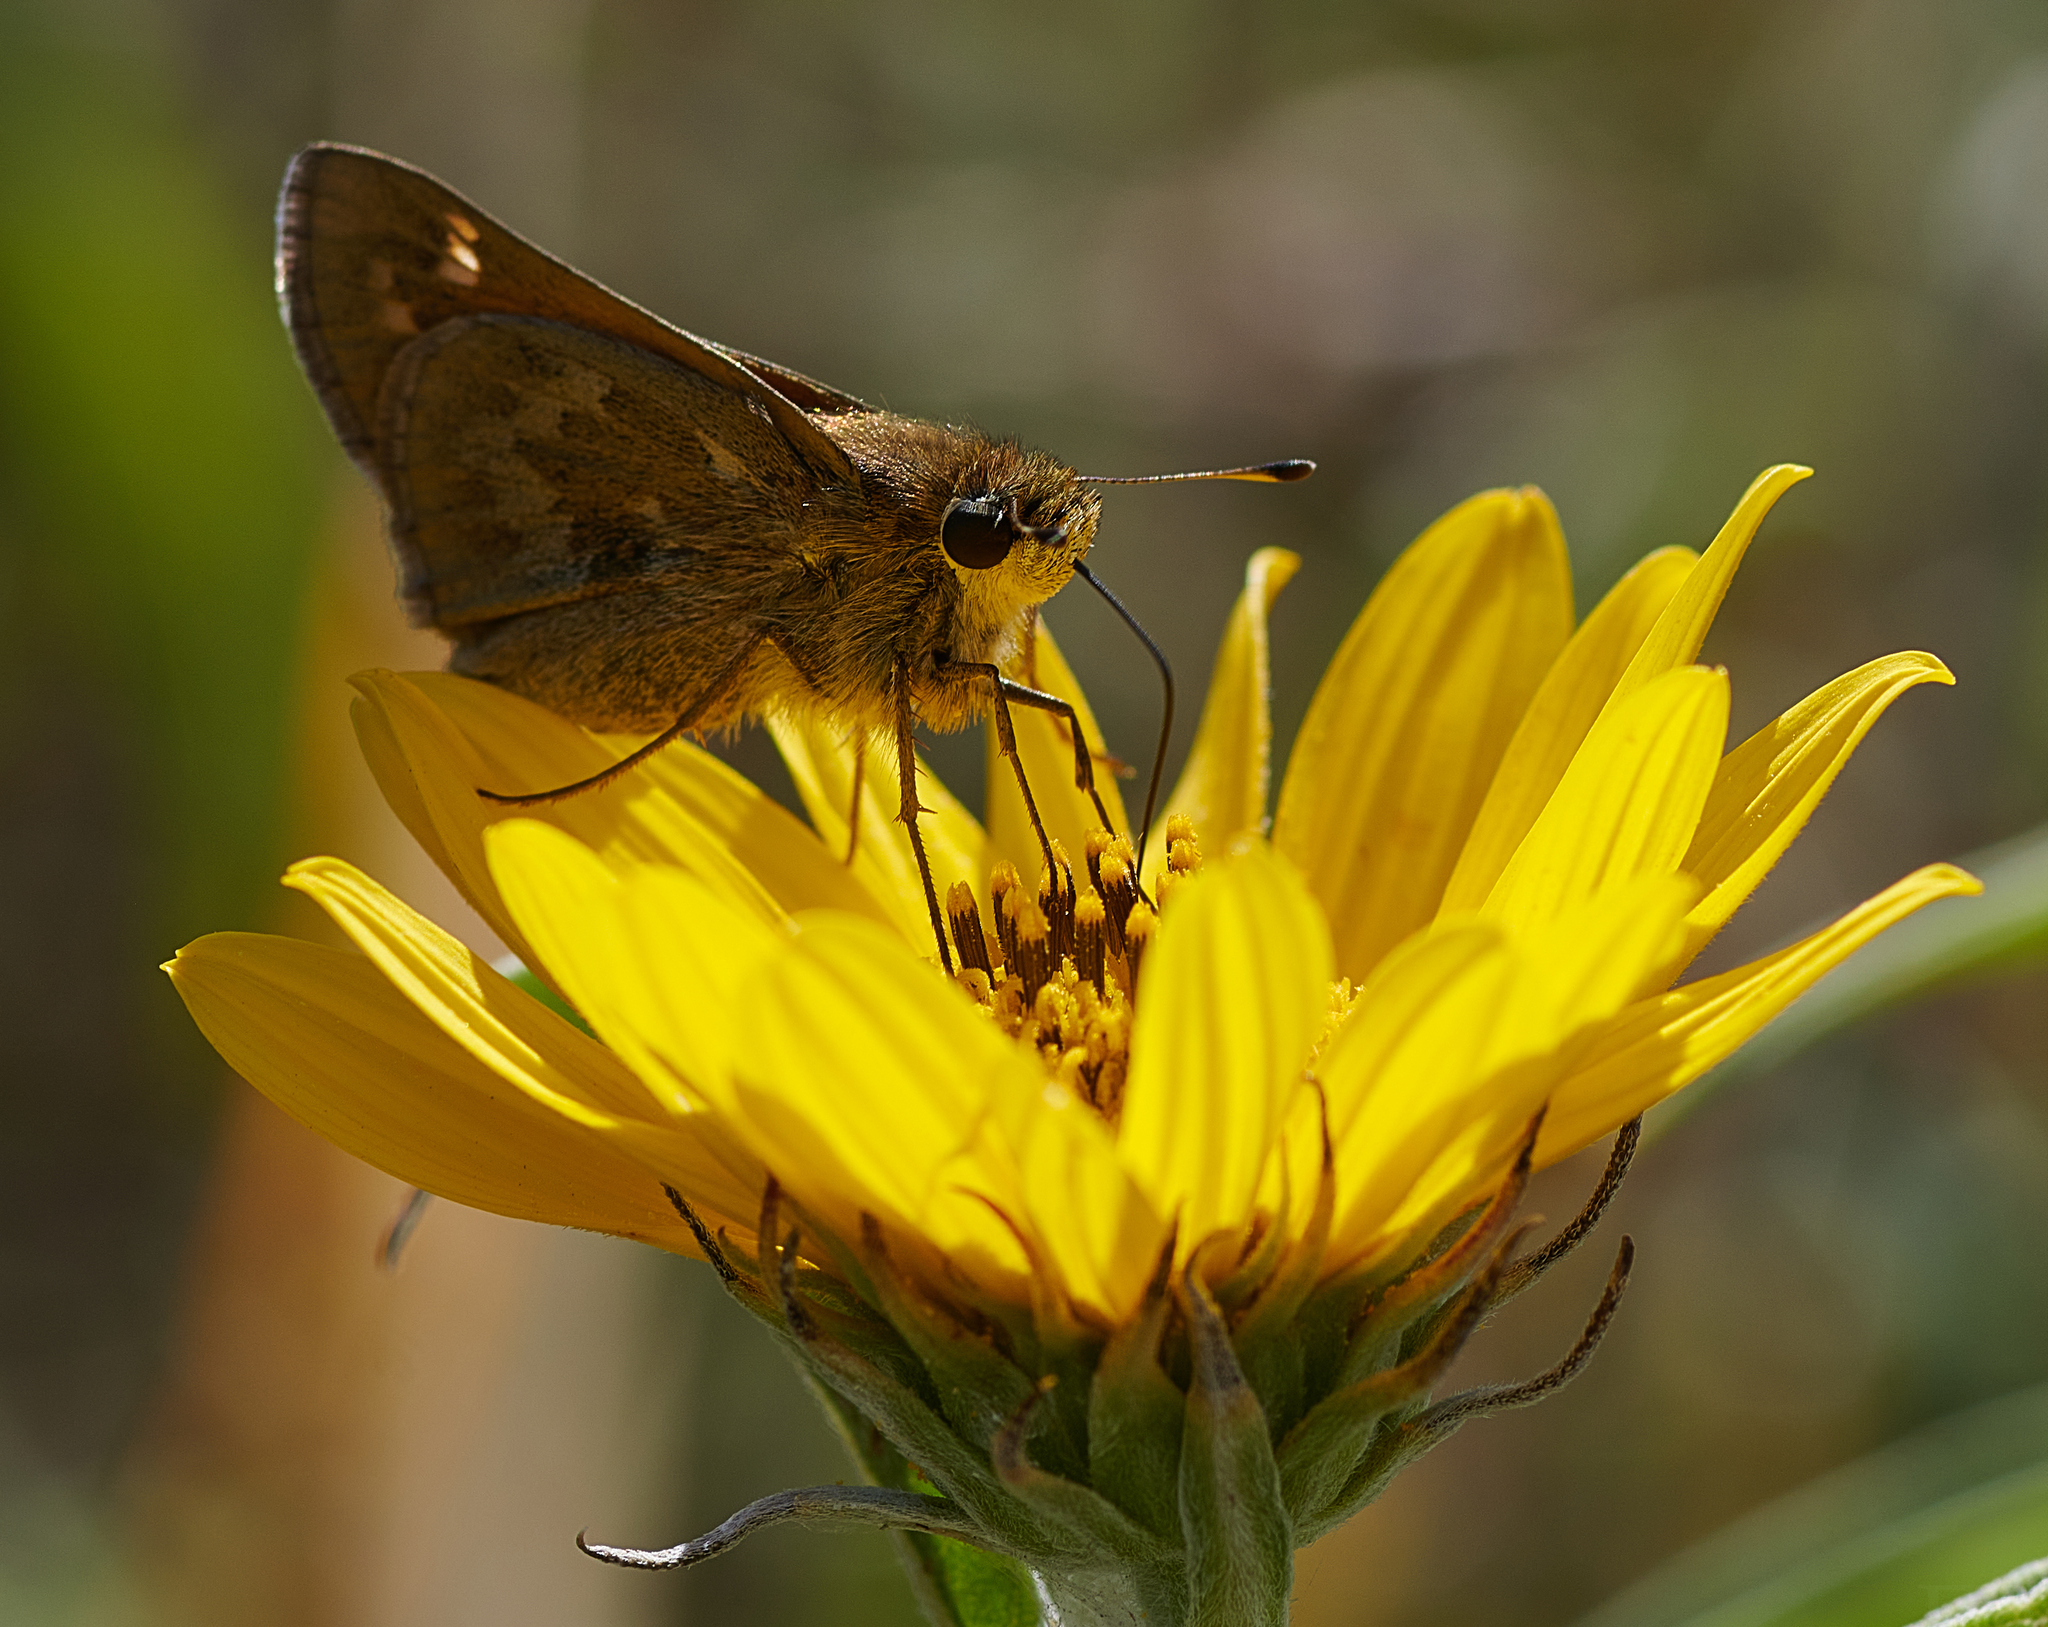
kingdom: Animalia
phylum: Arthropoda
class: Insecta
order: Lepidoptera
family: Hesperiidae
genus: Atalopedes
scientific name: Atalopedes
